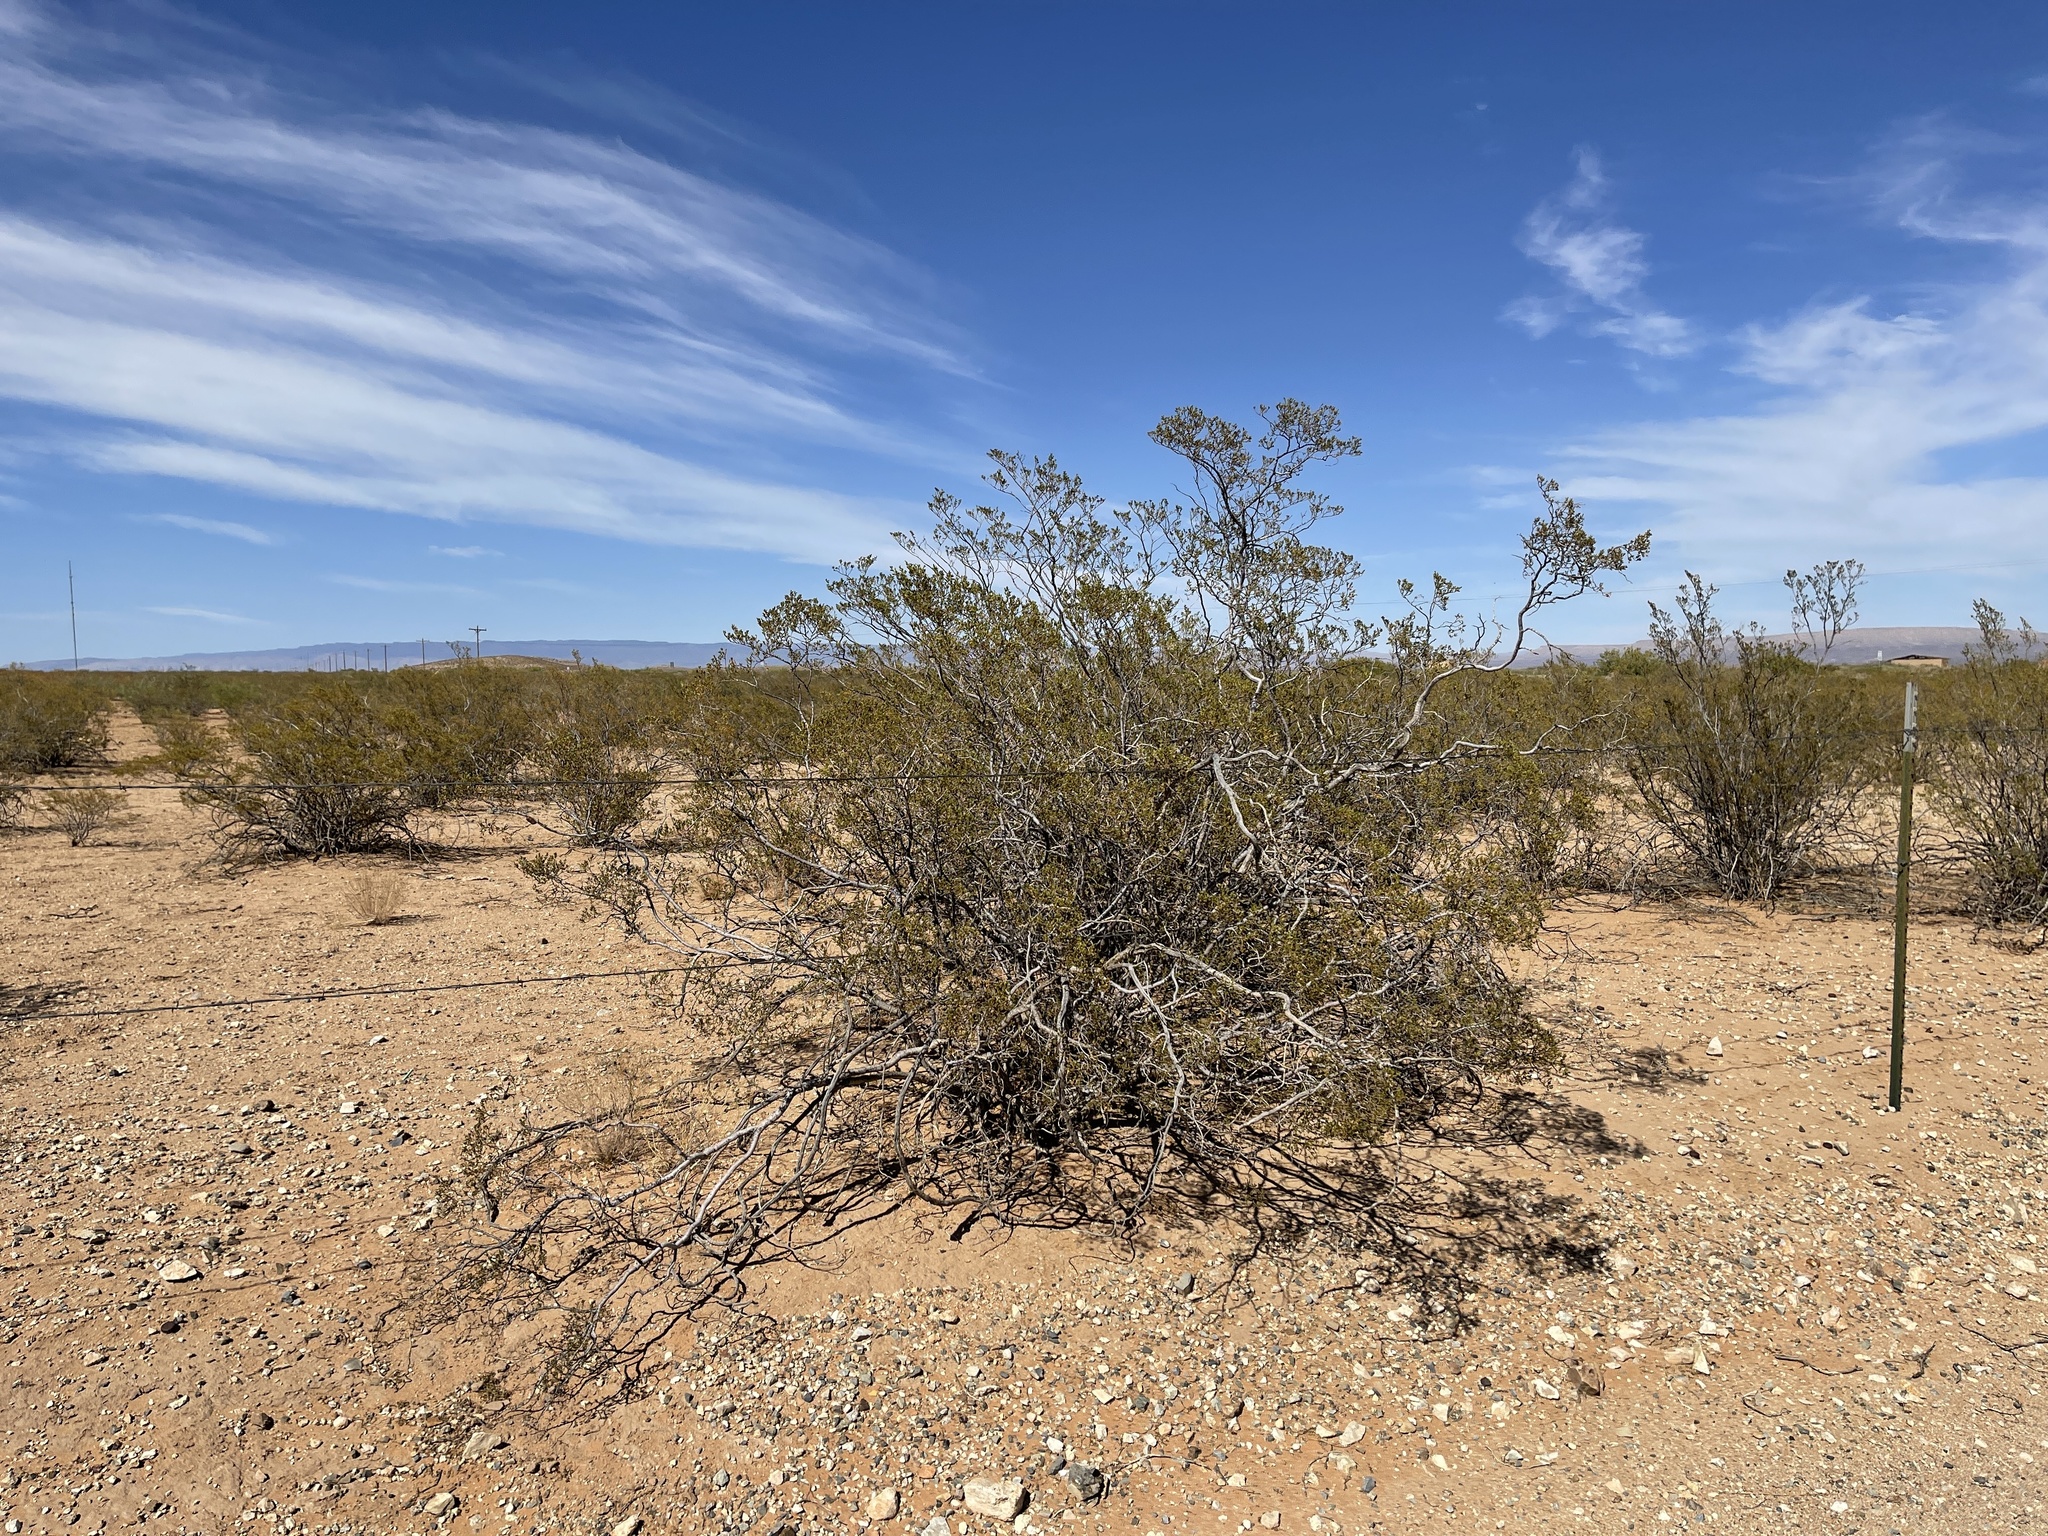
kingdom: Plantae
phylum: Tracheophyta
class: Magnoliopsida
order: Zygophyllales
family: Zygophyllaceae
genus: Larrea
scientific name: Larrea tridentata
